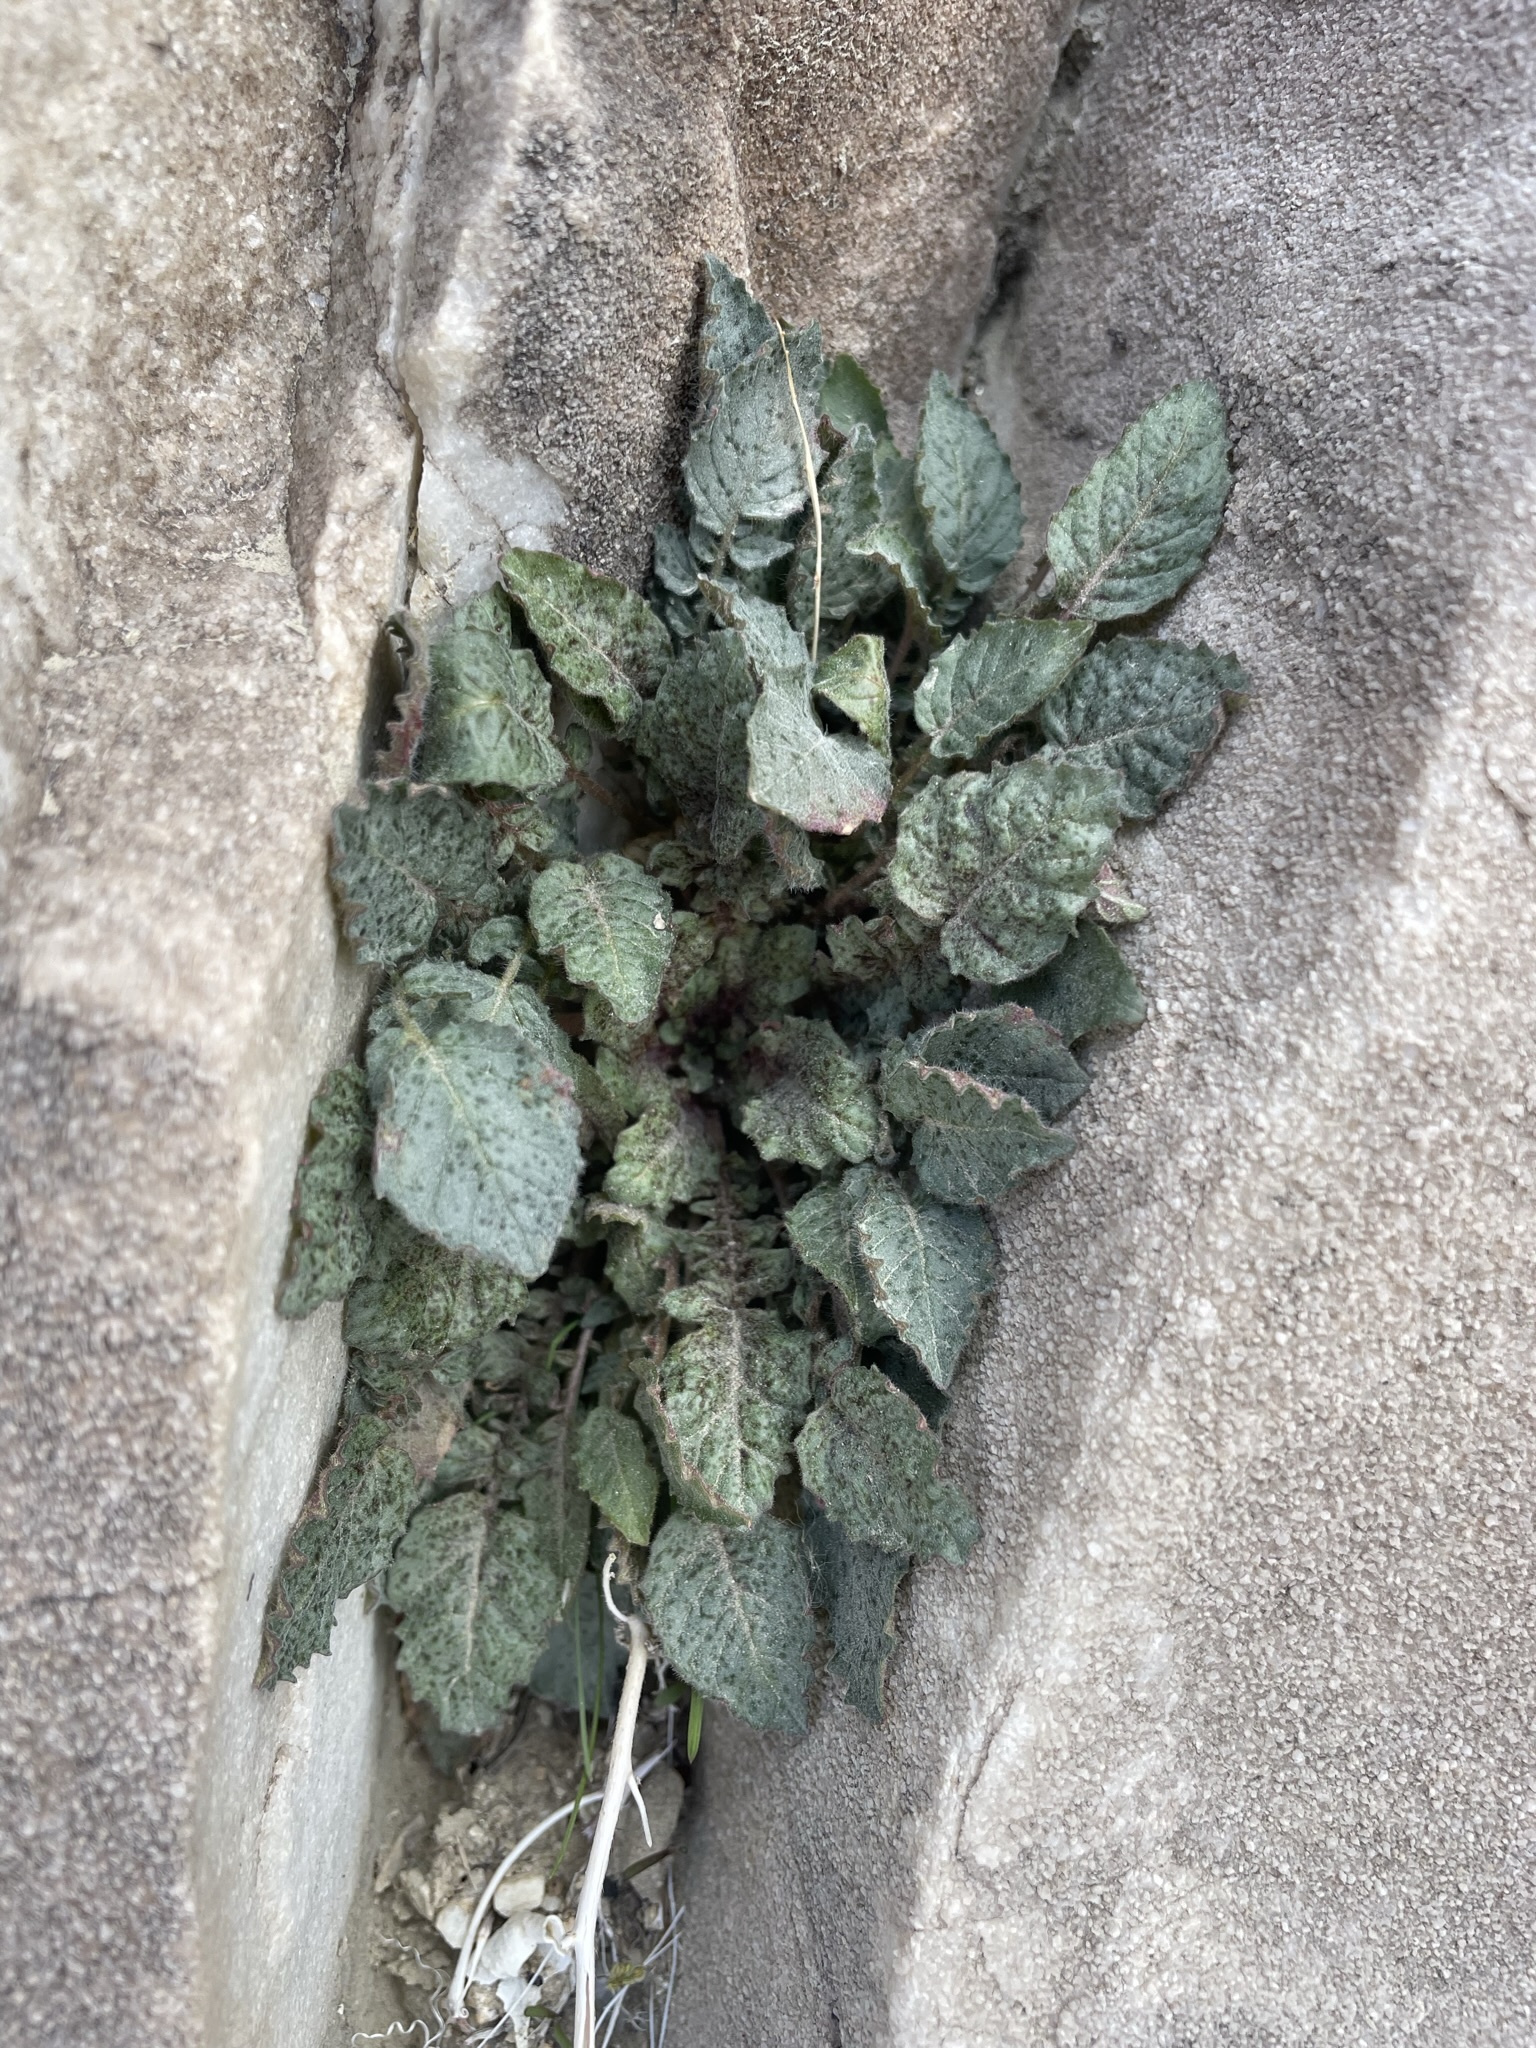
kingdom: Plantae
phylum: Tracheophyta
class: Magnoliopsida
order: Myrtales
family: Onagraceae
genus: Chylismia
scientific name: Chylismia walkeri
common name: Walker's suncup
